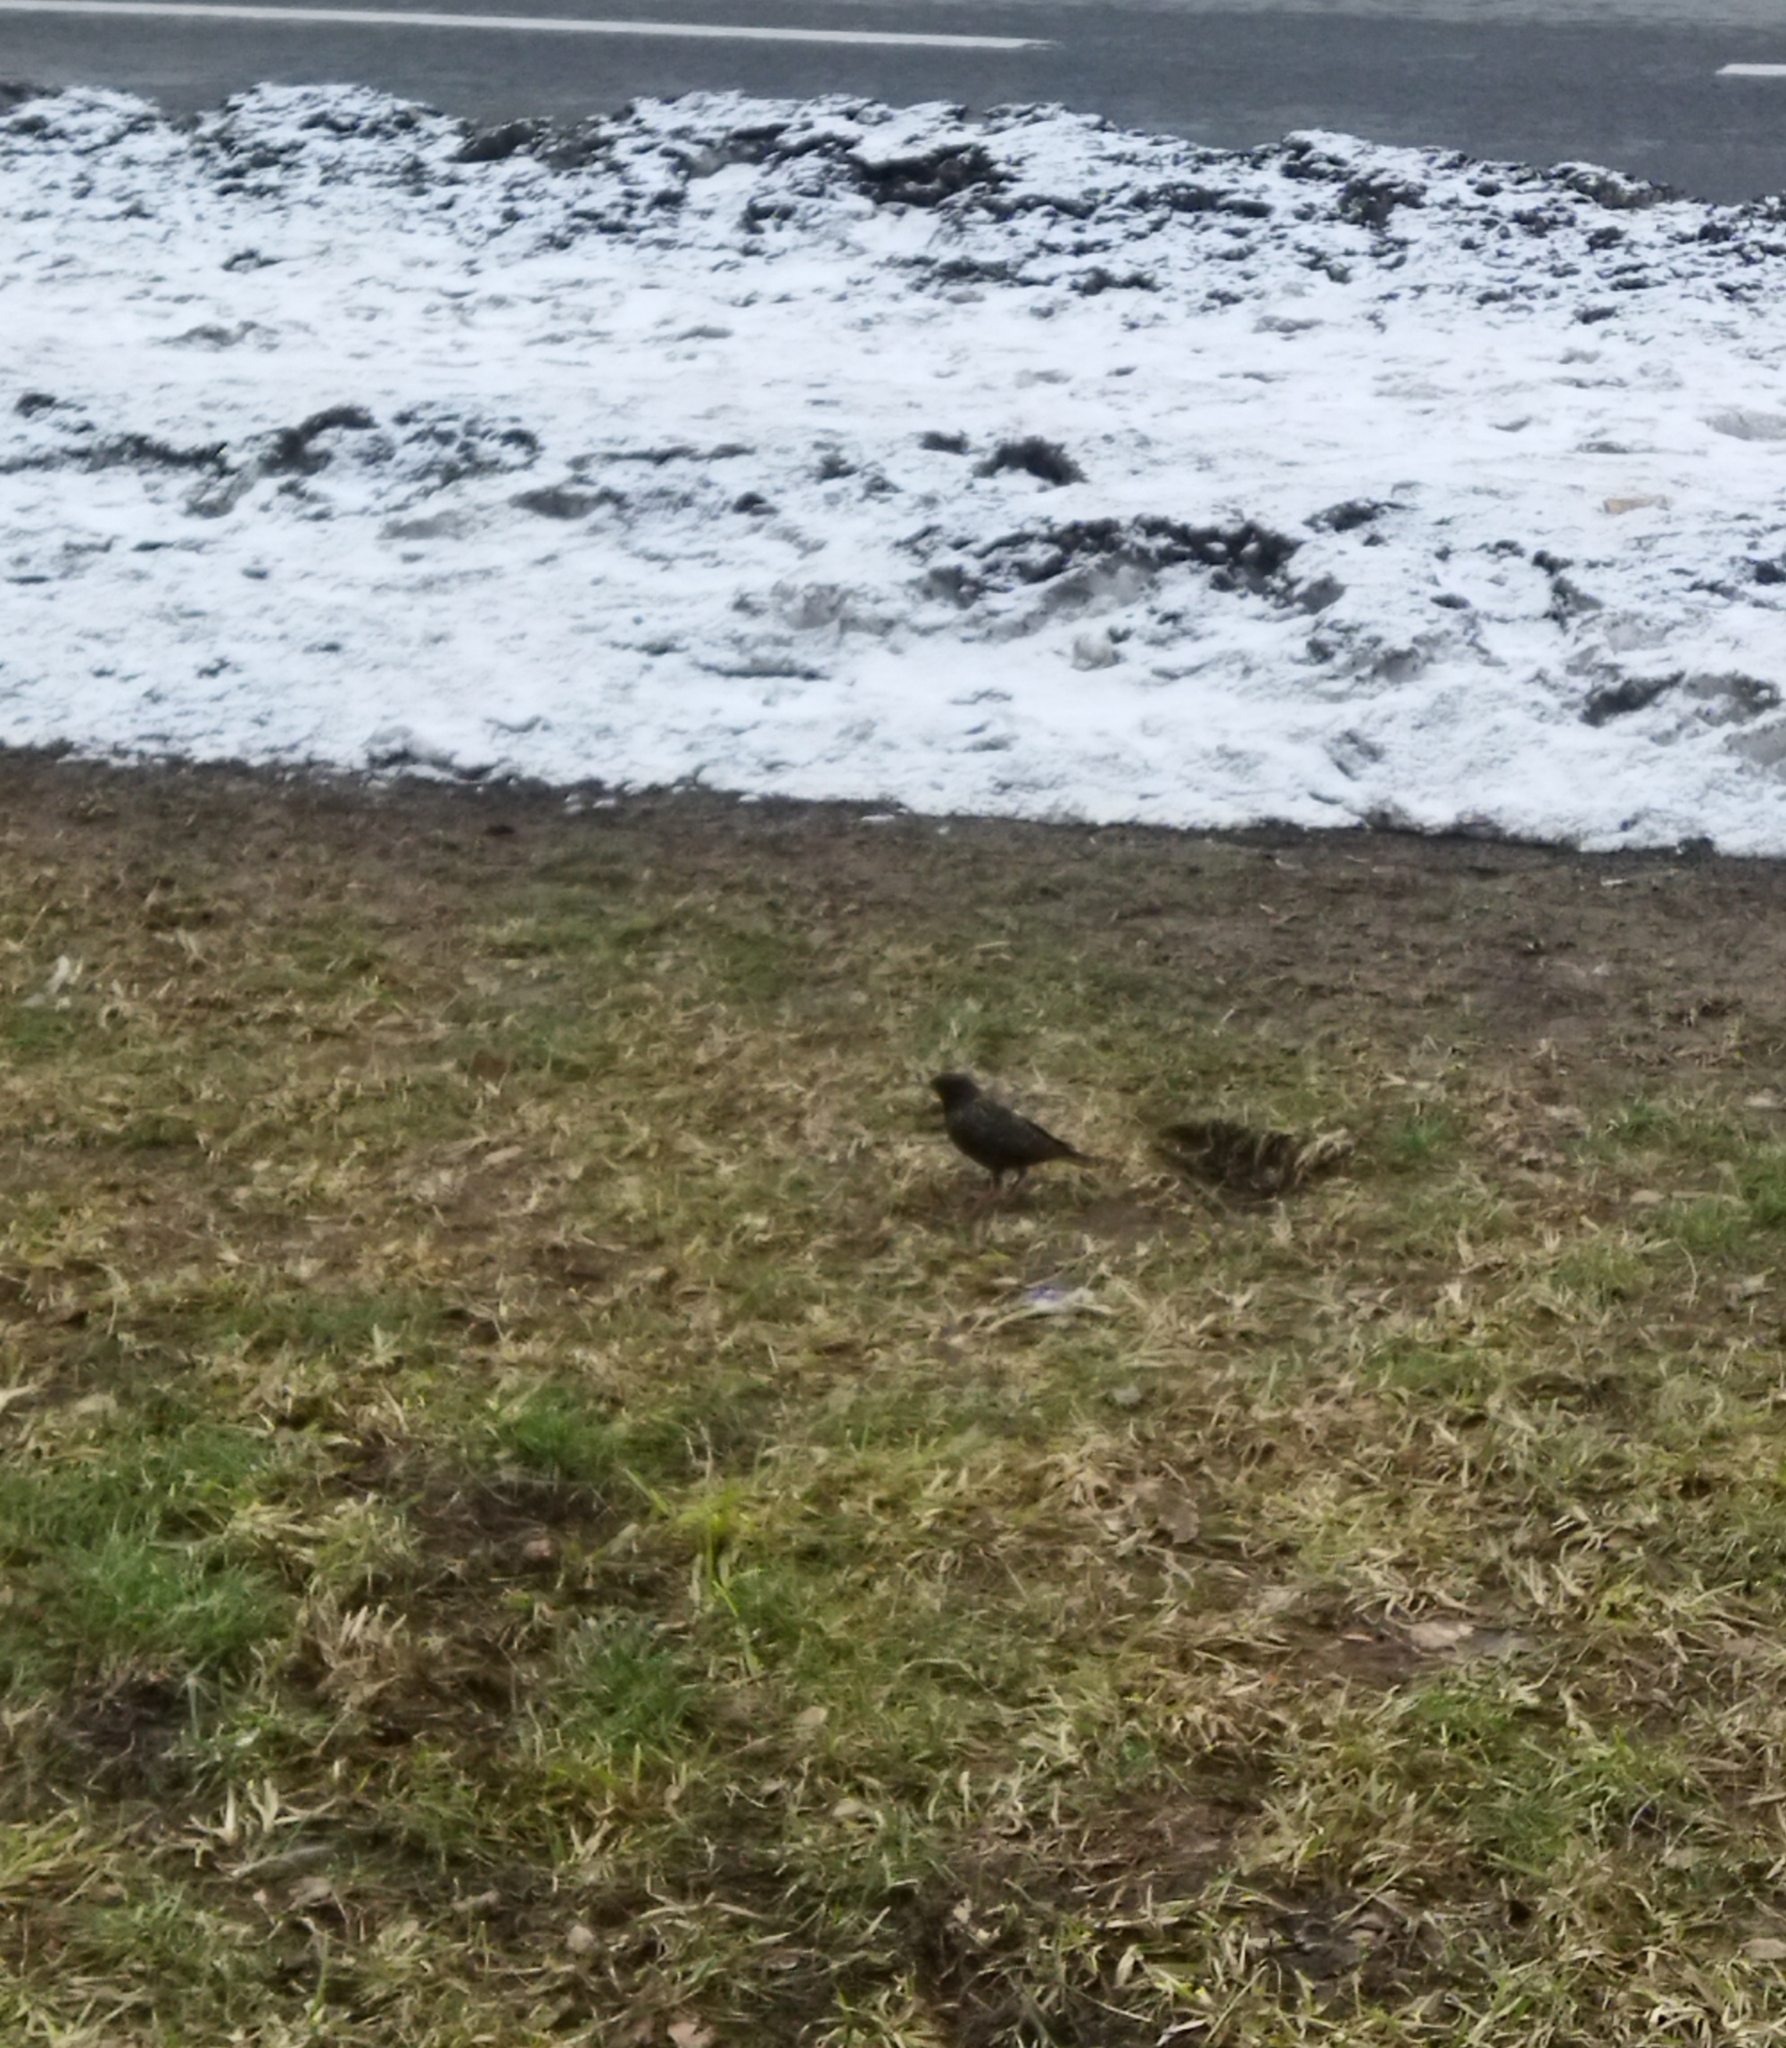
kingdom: Animalia
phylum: Chordata
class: Aves
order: Passeriformes
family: Sturnidae
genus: Sturnus
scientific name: Sturnus vulgaris
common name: Common starling
